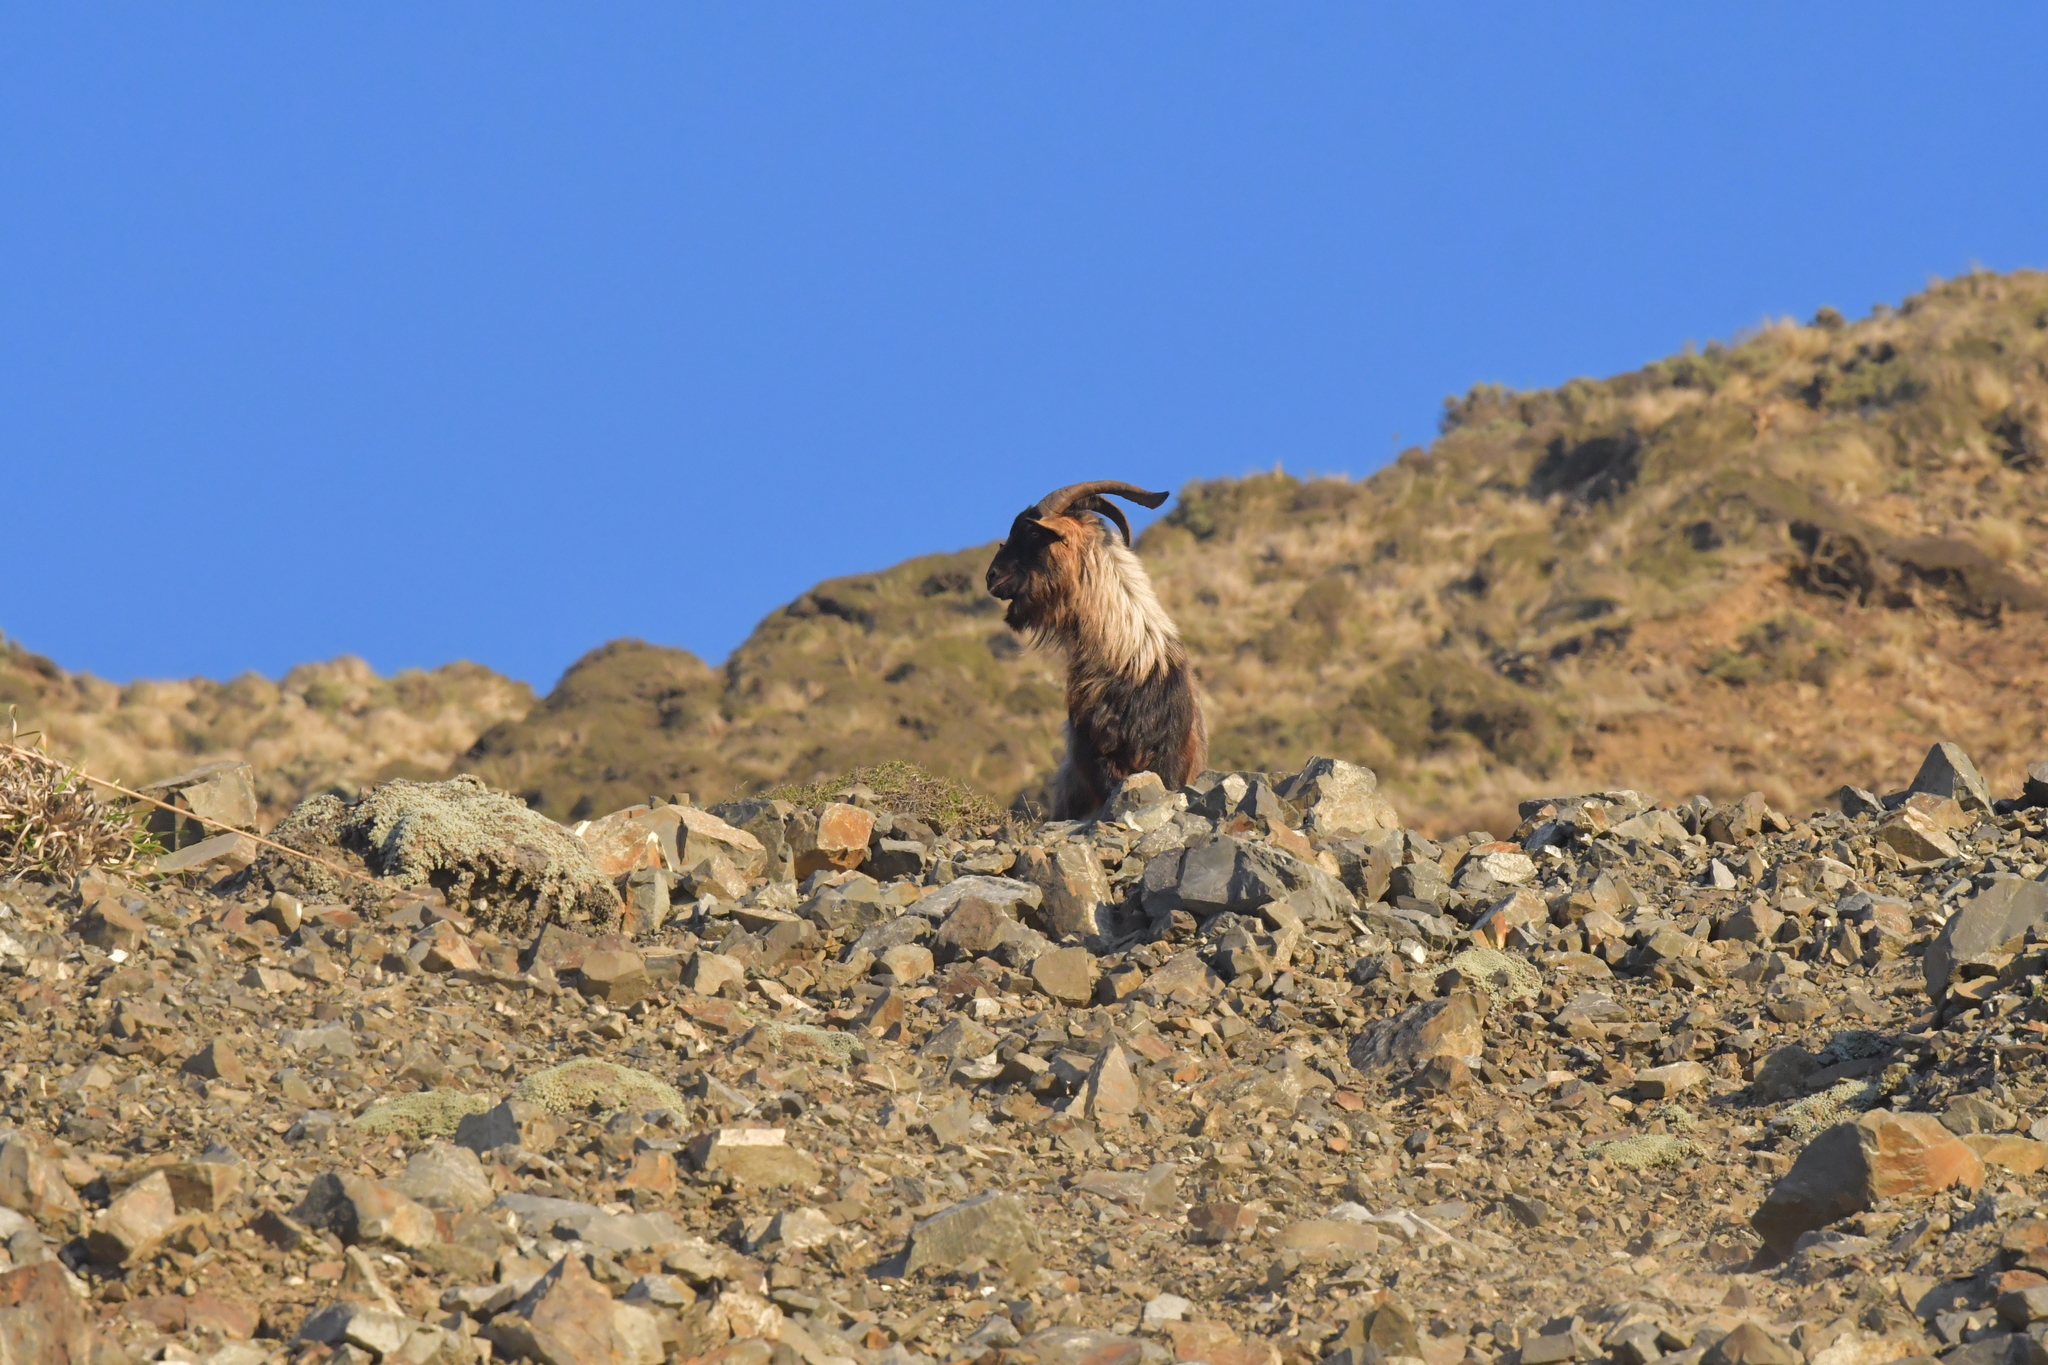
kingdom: Animalia
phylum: Chordata
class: Mammalia
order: Artiodactyla
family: Bovidae
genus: Capra
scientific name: Capra hircus
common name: Domestic goat
